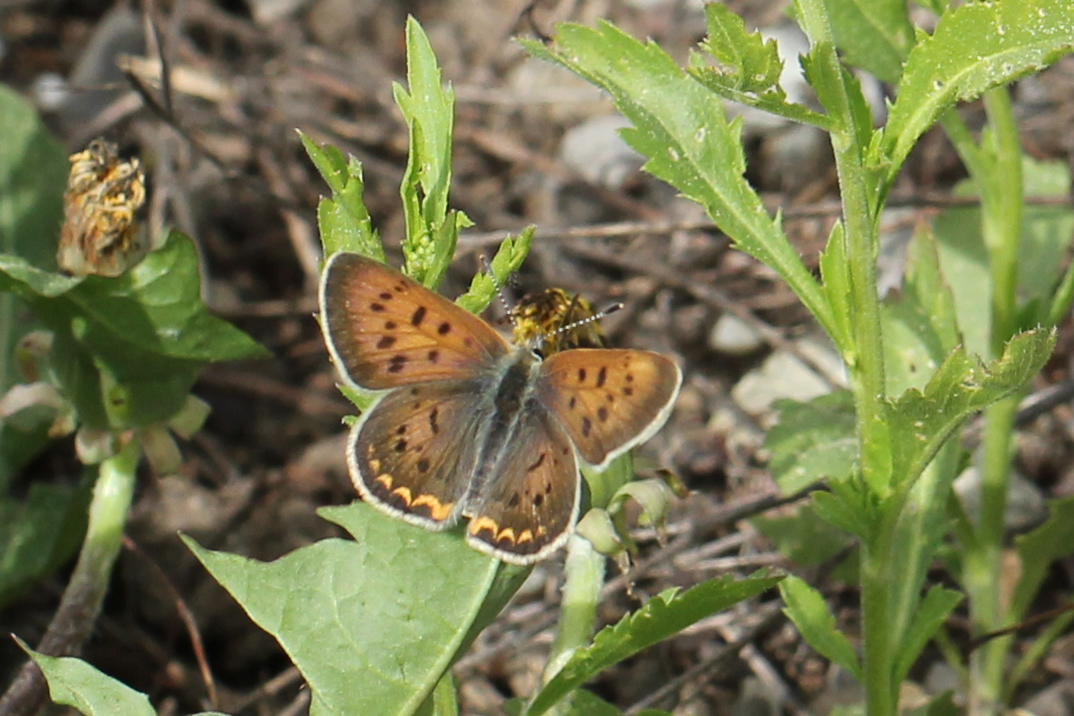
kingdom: Animalia
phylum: Arthropoda
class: Insecta
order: Lepidoptera
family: Lycaenidae
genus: Tharsalea
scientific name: Tharsalea helloides
